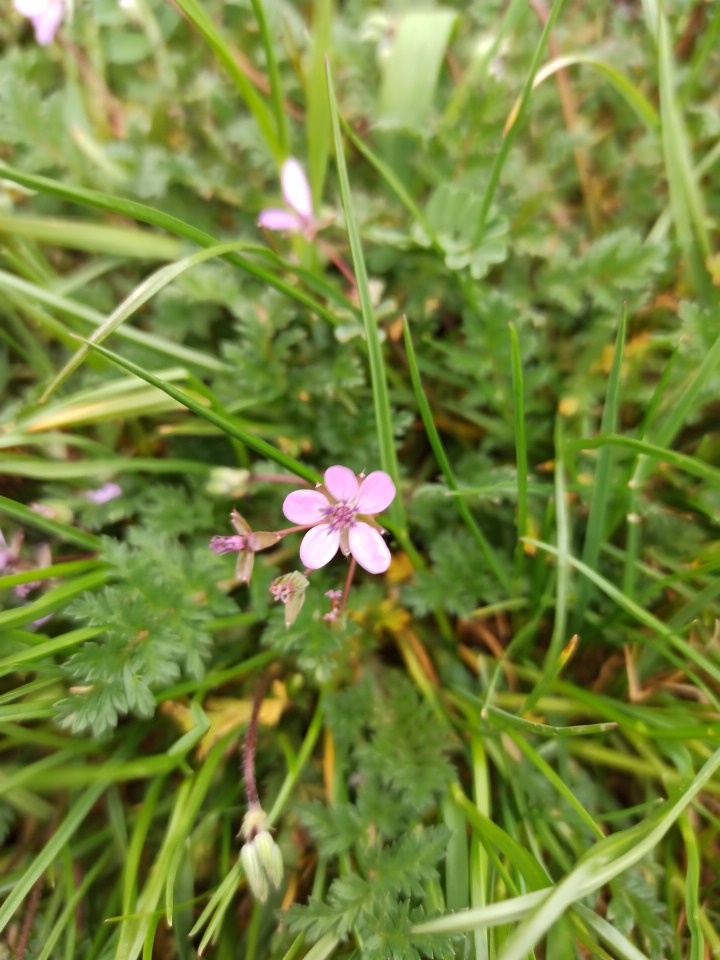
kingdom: Plantae
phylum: Tracheophyta
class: Magnoliopsida
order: Geraniales
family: Geraniaceae
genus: Erodium
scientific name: Erodium cicutarium
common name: Common stork's-bill
